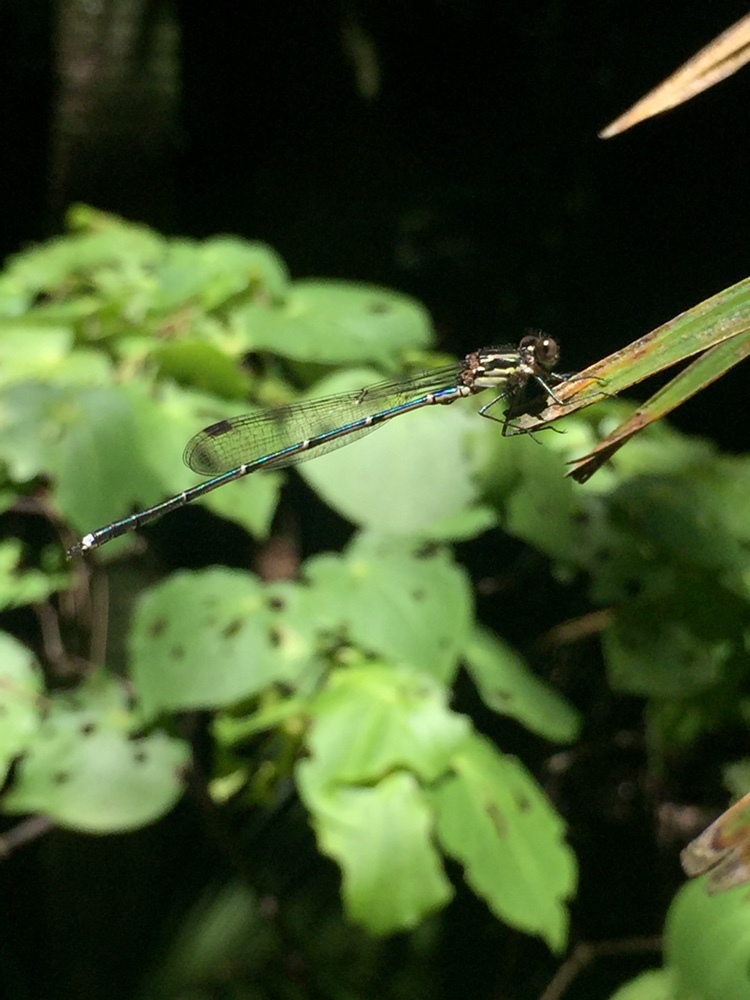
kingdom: Animalia
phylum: Arthropoda
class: Insecta
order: Odonata
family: Lestidae
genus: Austrolestes
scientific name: Austrolestes colensonis
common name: Blue damselfly
